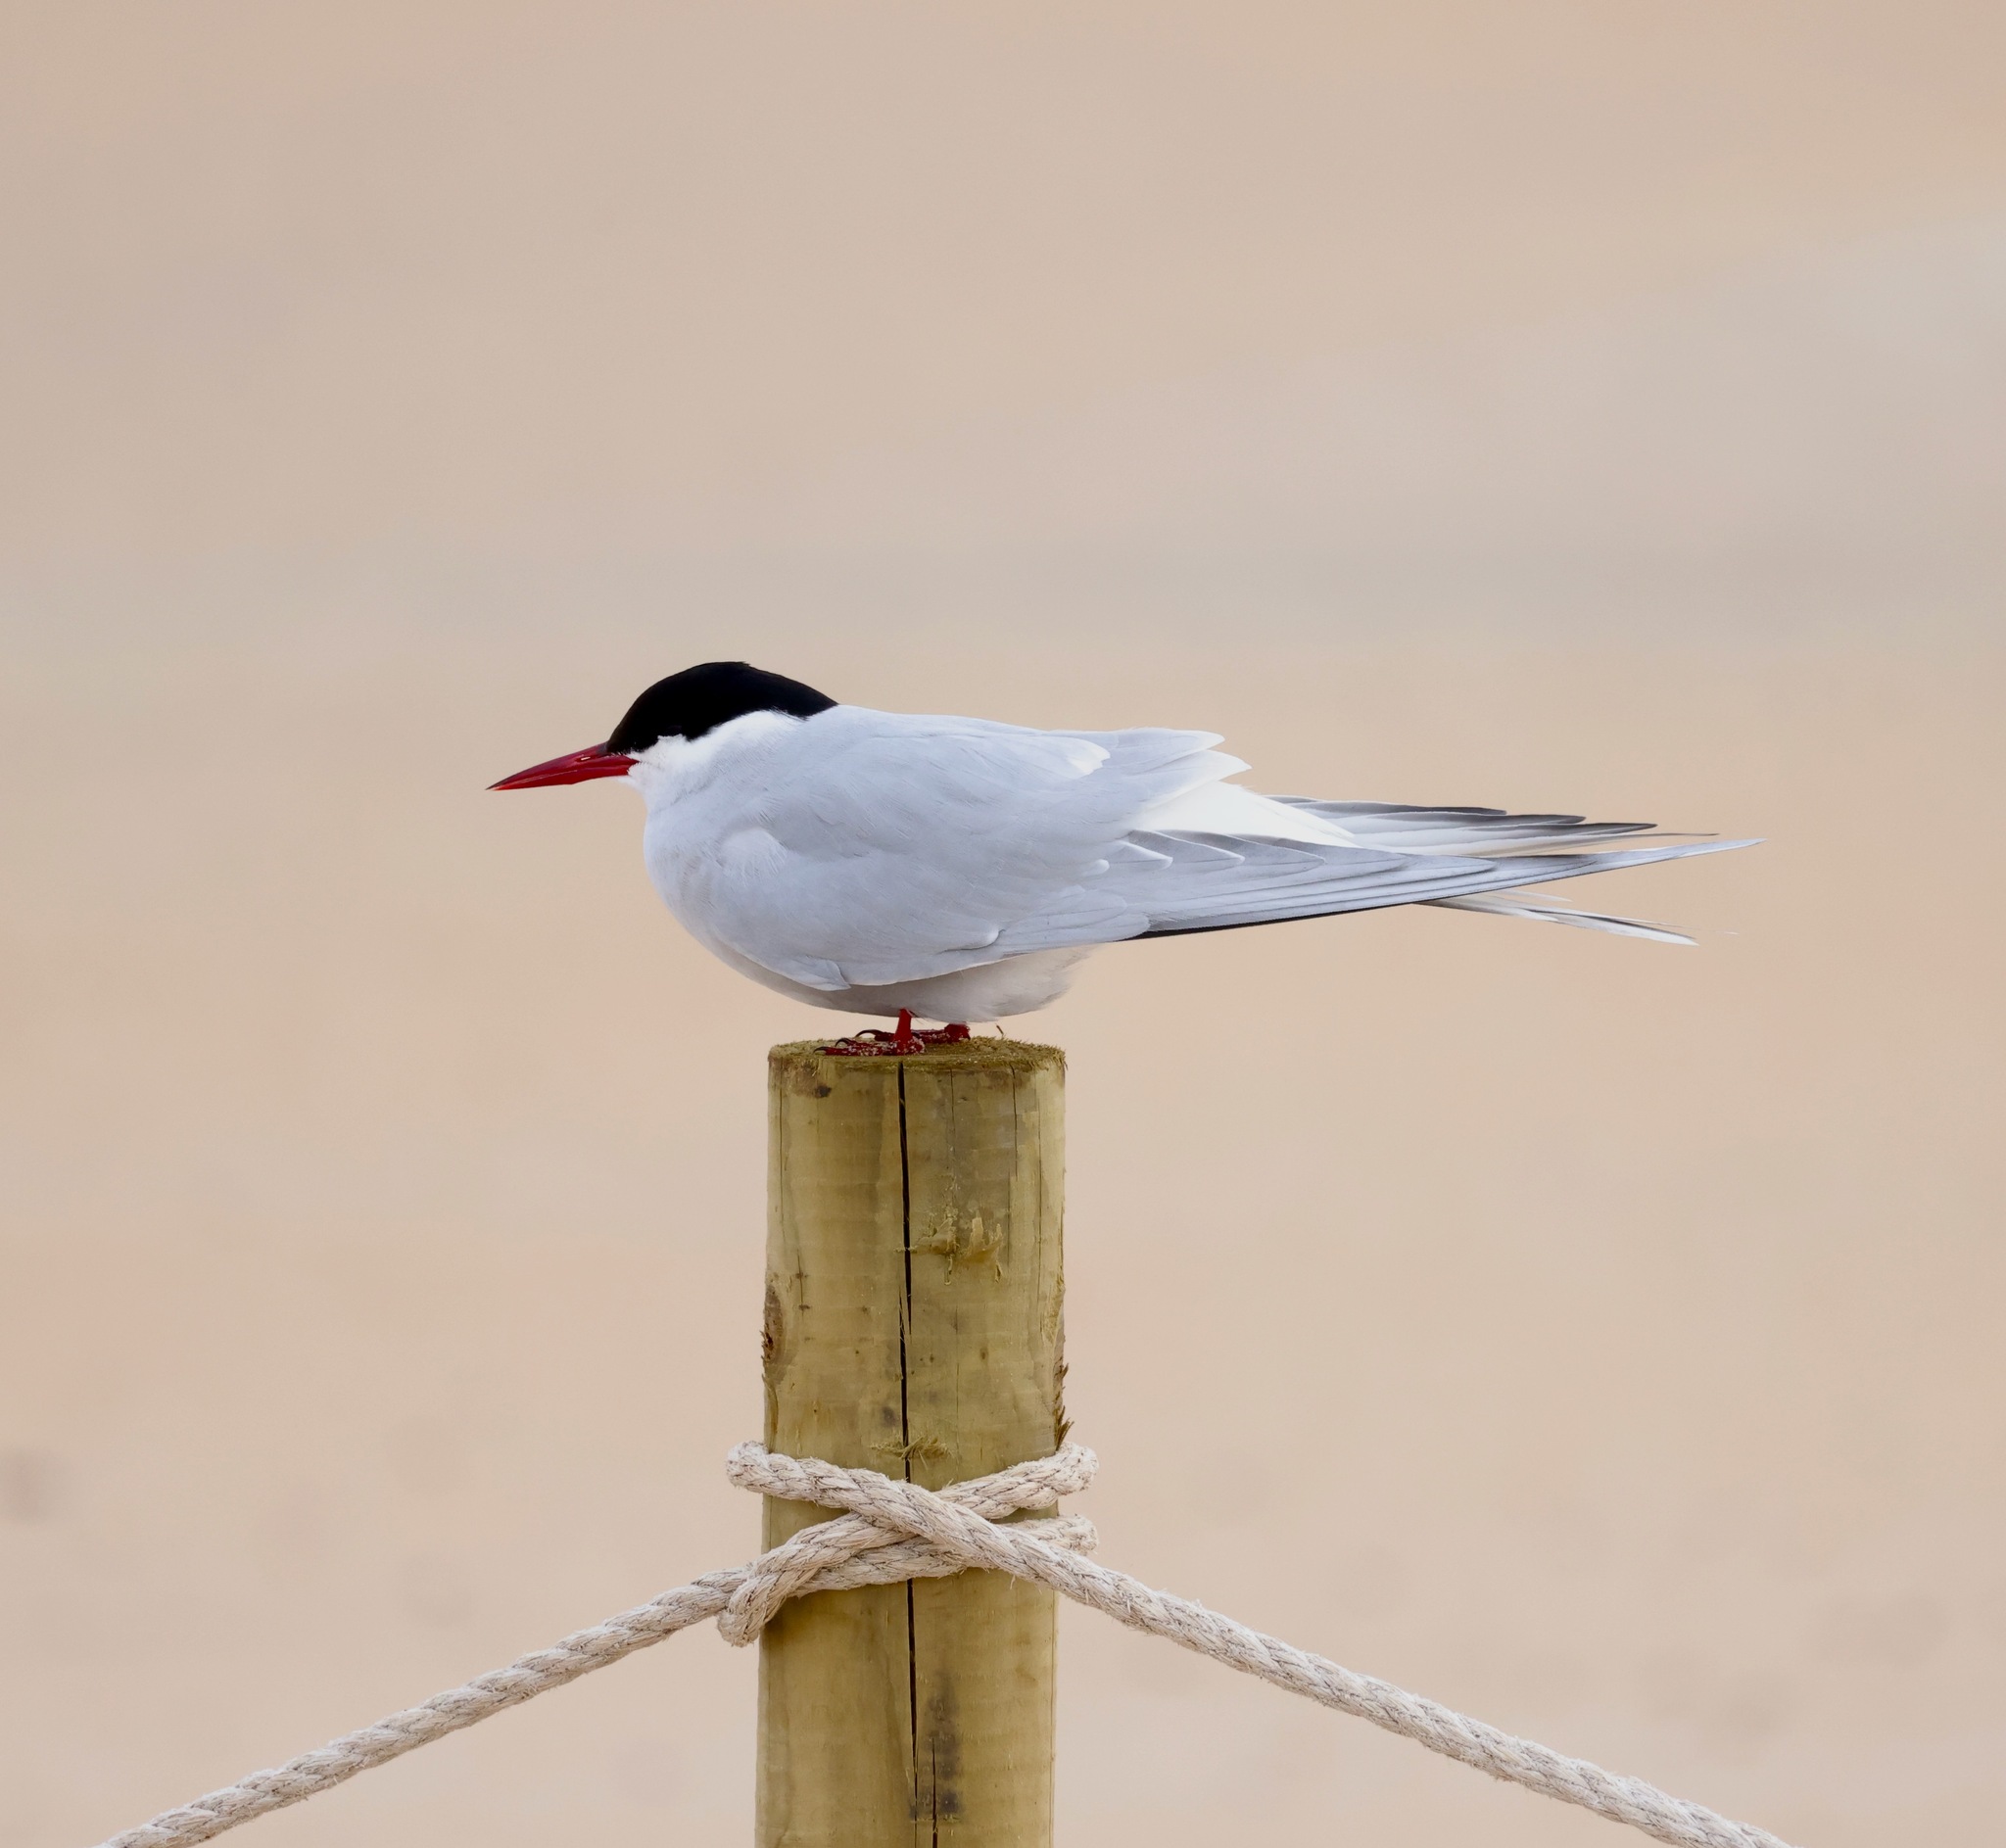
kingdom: Animalia
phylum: Chordata
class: Aves
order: Charadriiformes
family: Laridae
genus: Sterna
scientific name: Sterna paradisaea
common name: Arctic tern
